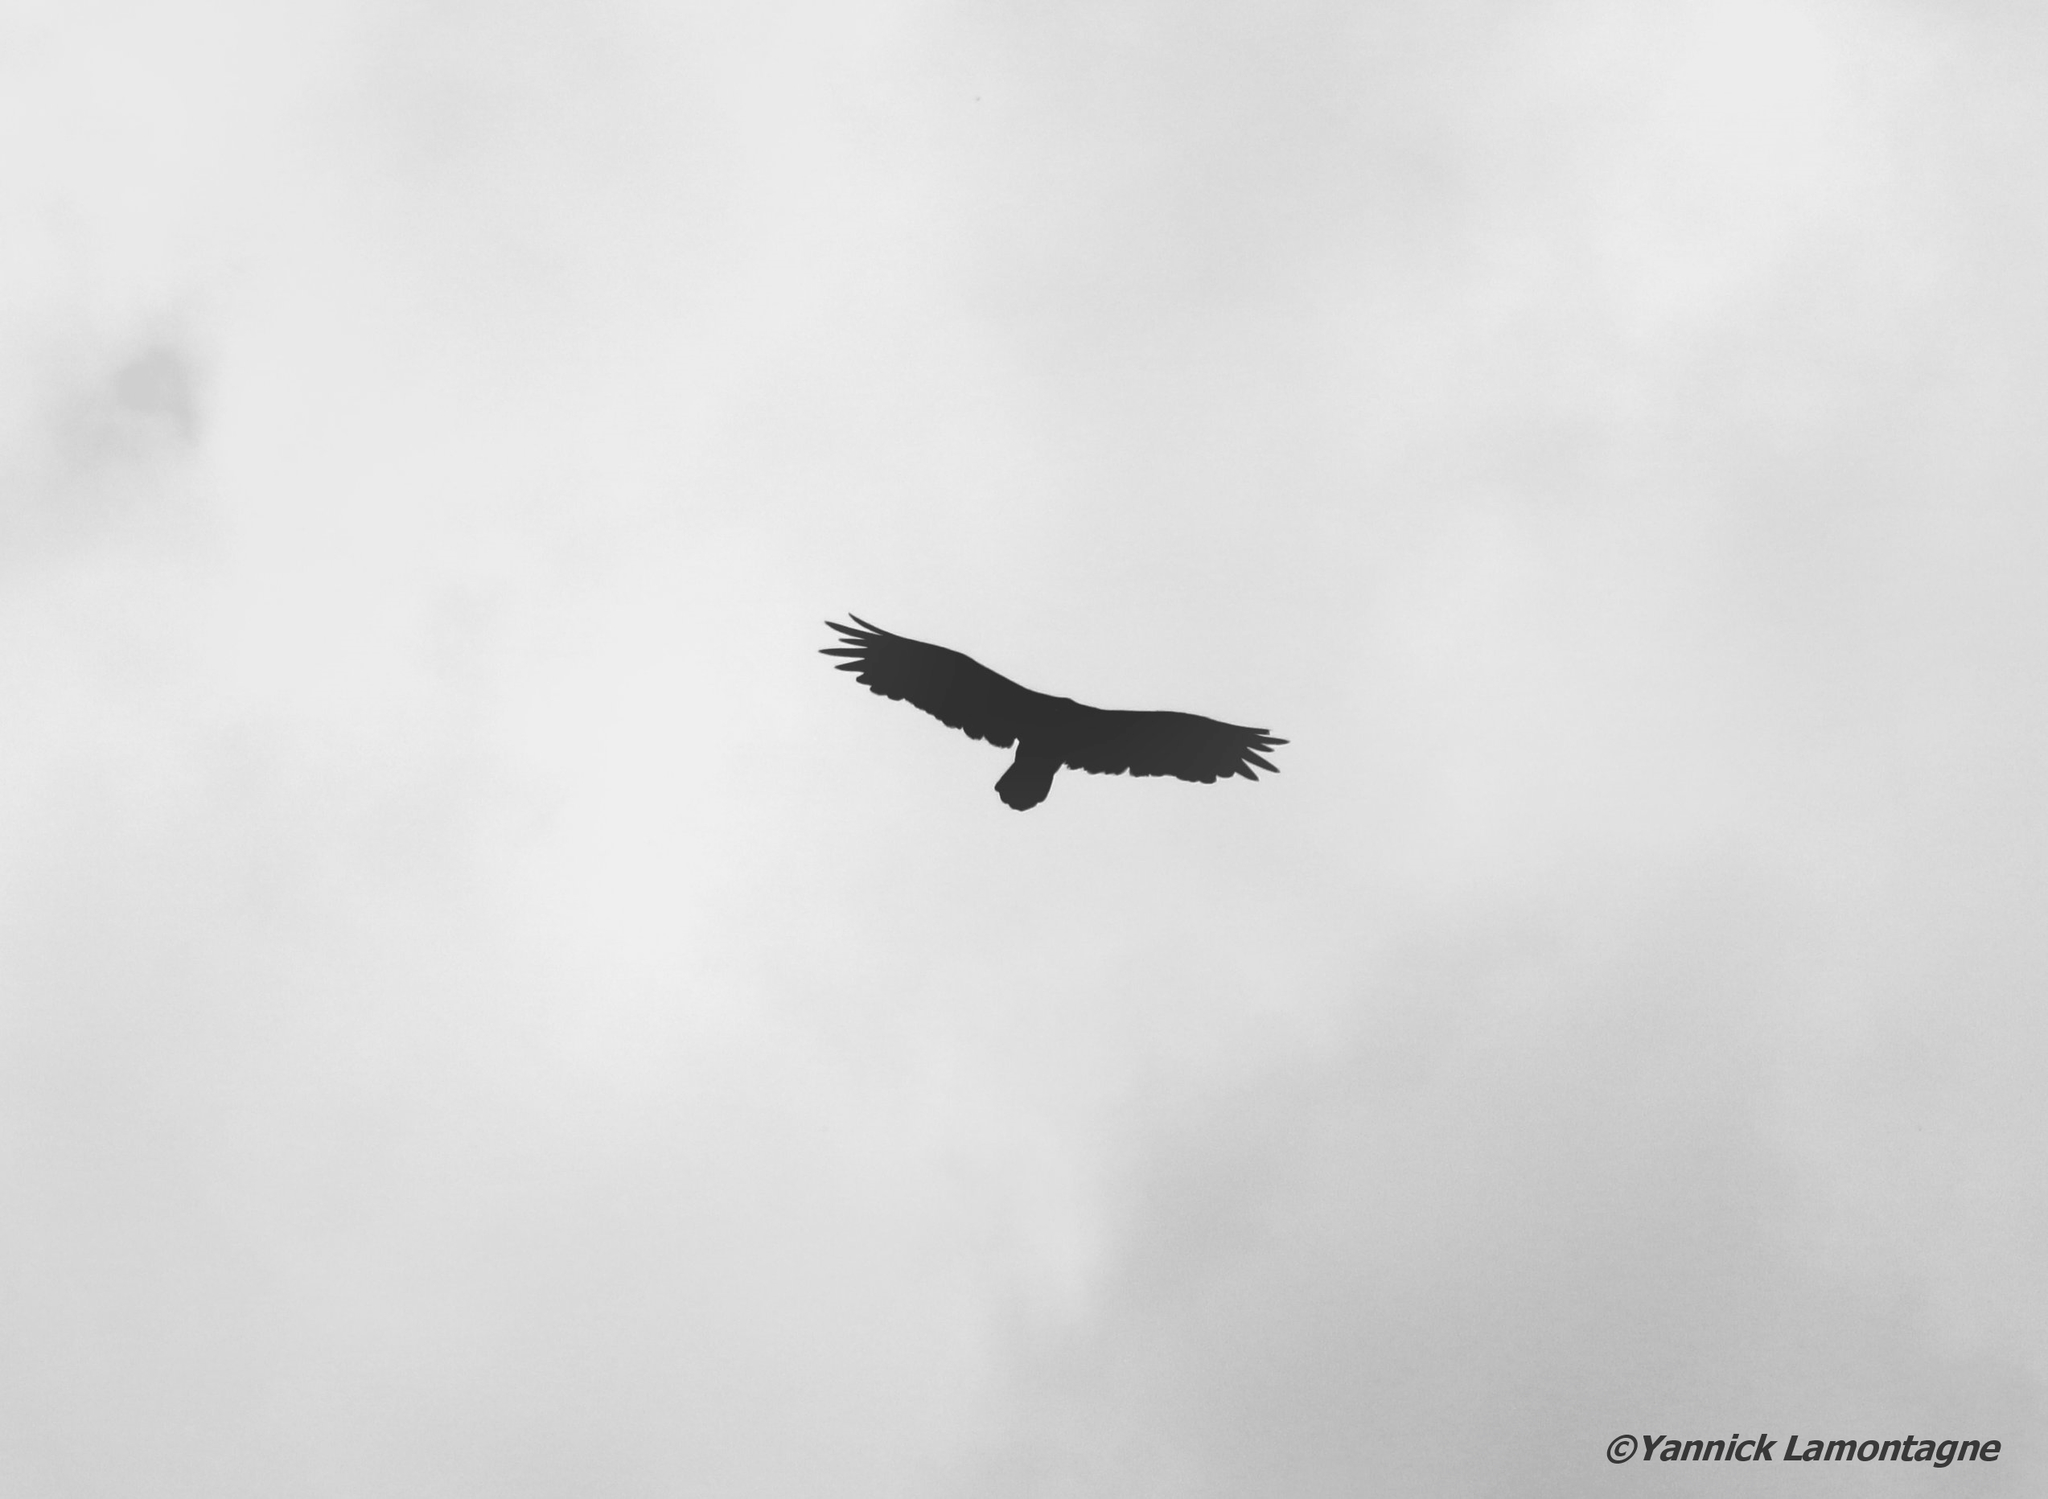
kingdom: Animalia
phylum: Chordata
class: Aves
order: Accipitriformes
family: Cathartidae
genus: Cathartes
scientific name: Cathartes aura
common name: Turkey vulture
